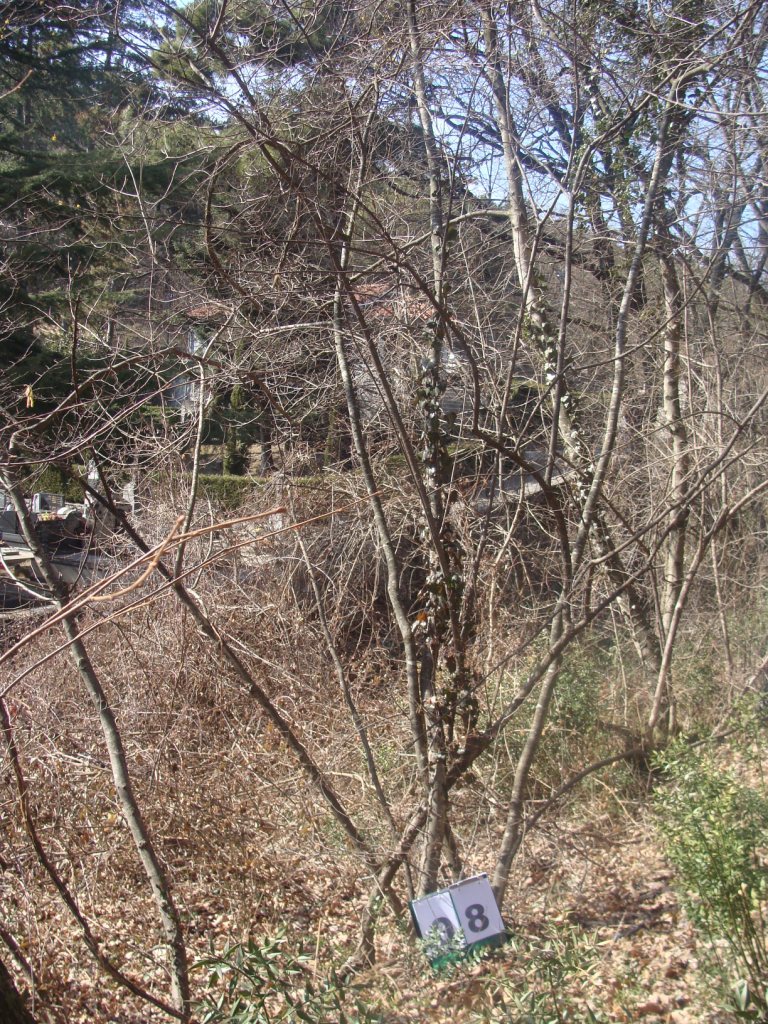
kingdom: Plantae
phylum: Tracheophyta
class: Magnoliopsida
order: Cornales
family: Cornaceae
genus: Cornus
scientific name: Cornus mas
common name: Cornelian-cherry
